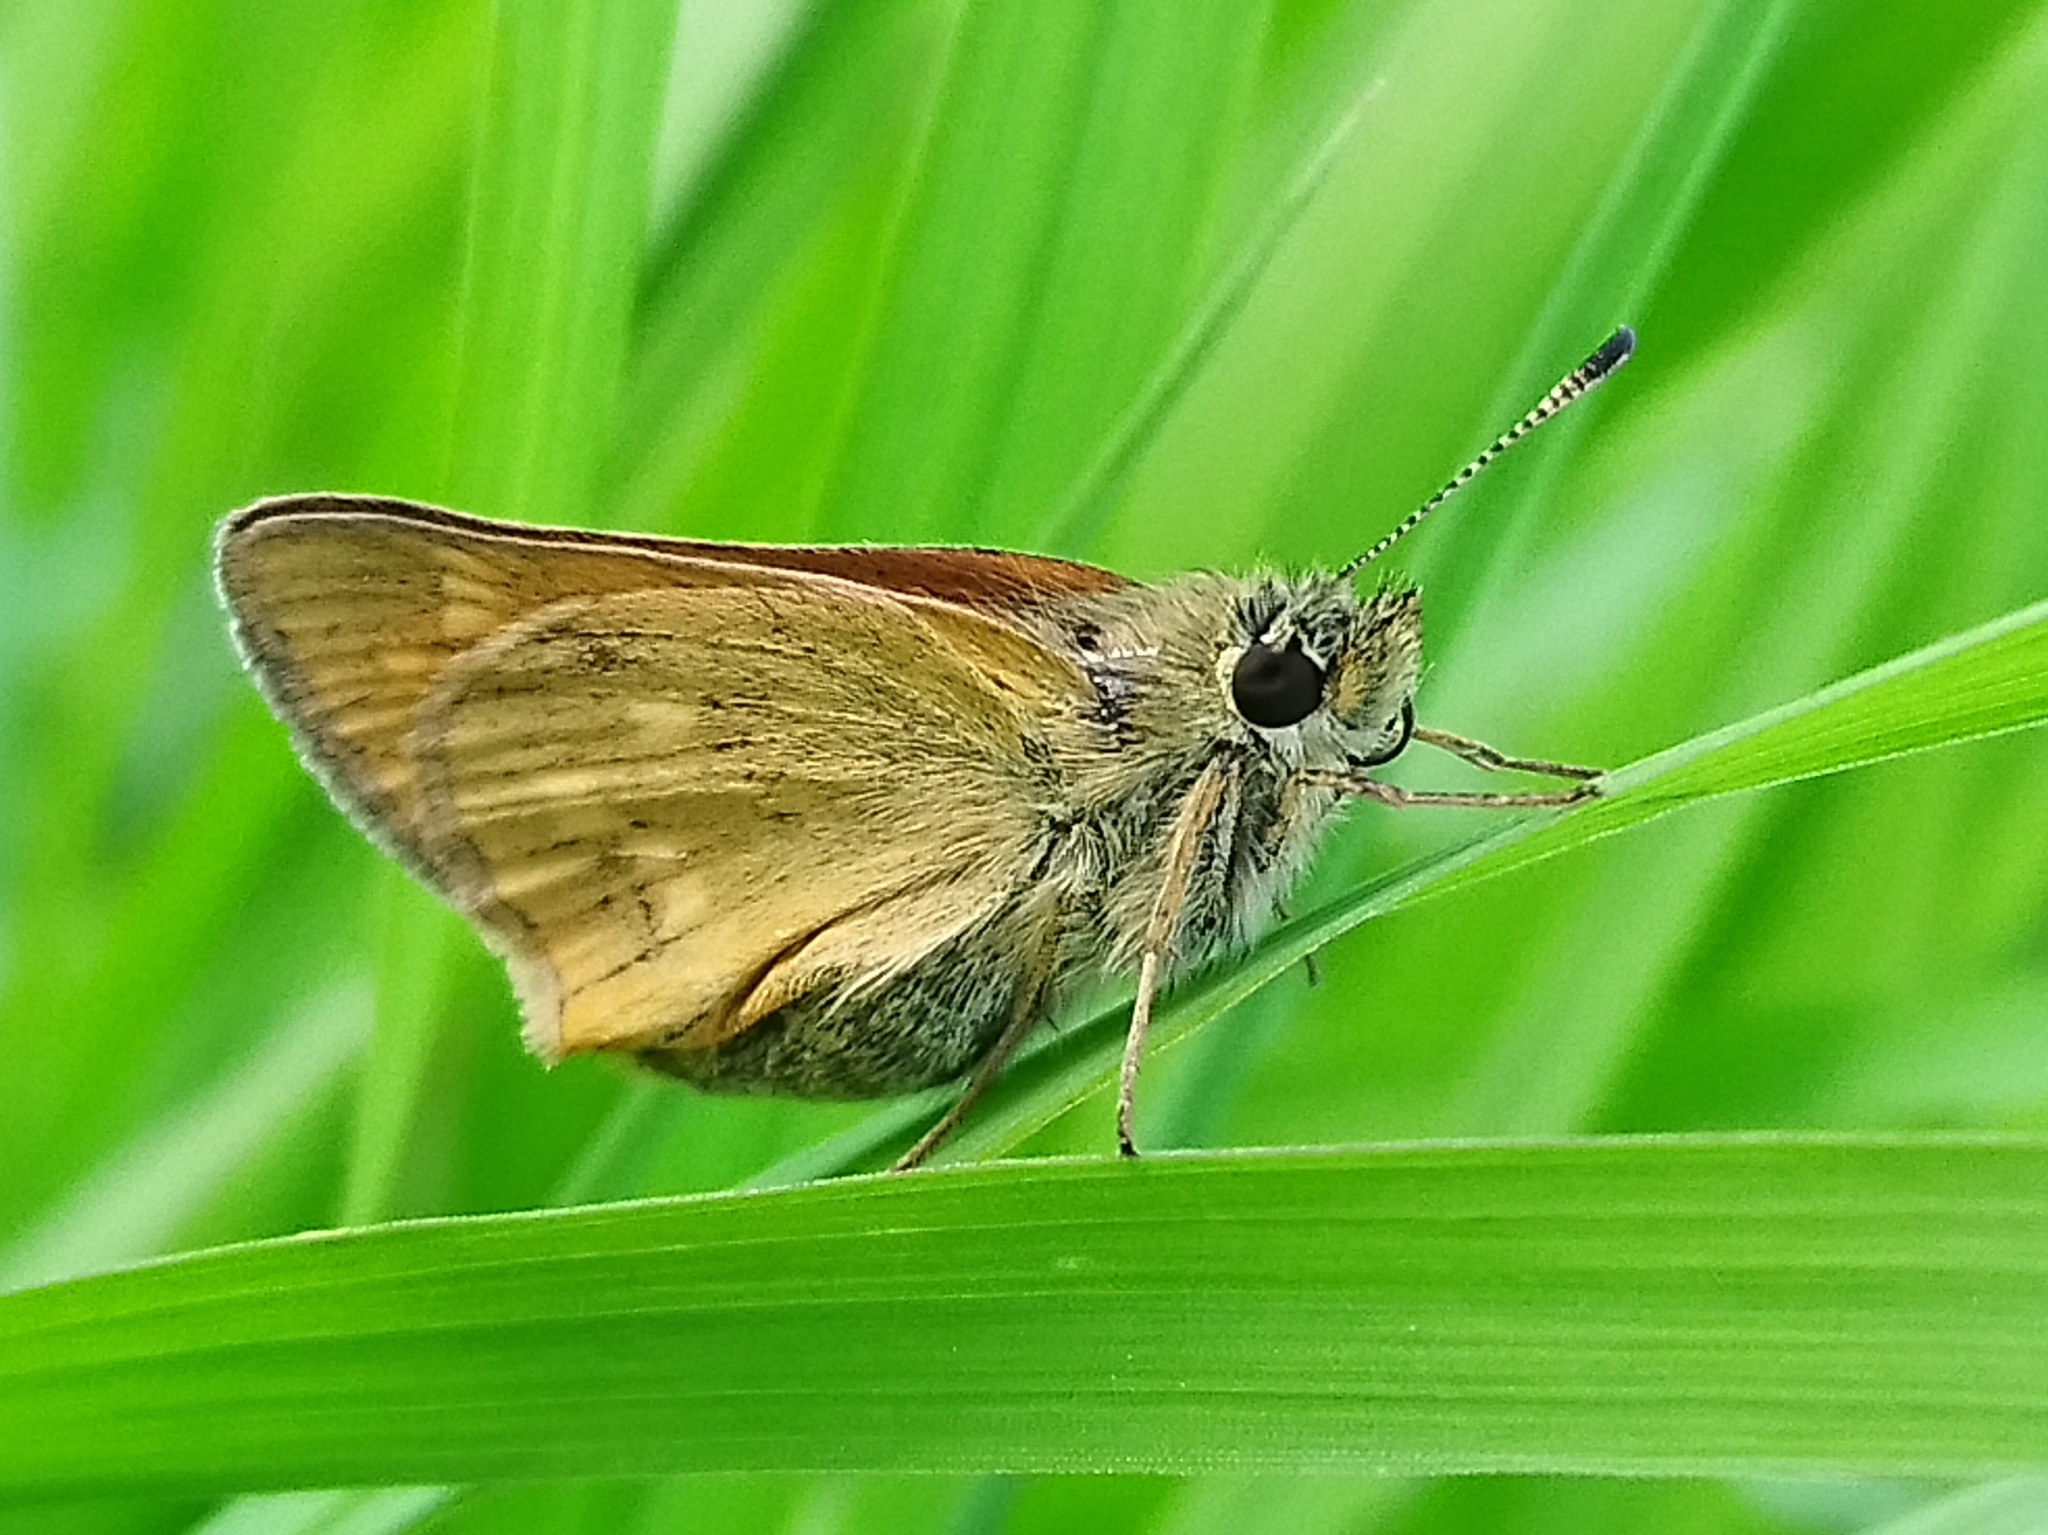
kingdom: Animalia
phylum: Arthropoda
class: Insecta
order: Lepidoptera
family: Hesperiidae
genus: Ochlodes
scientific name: Ochlodes venata
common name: Large skipper
